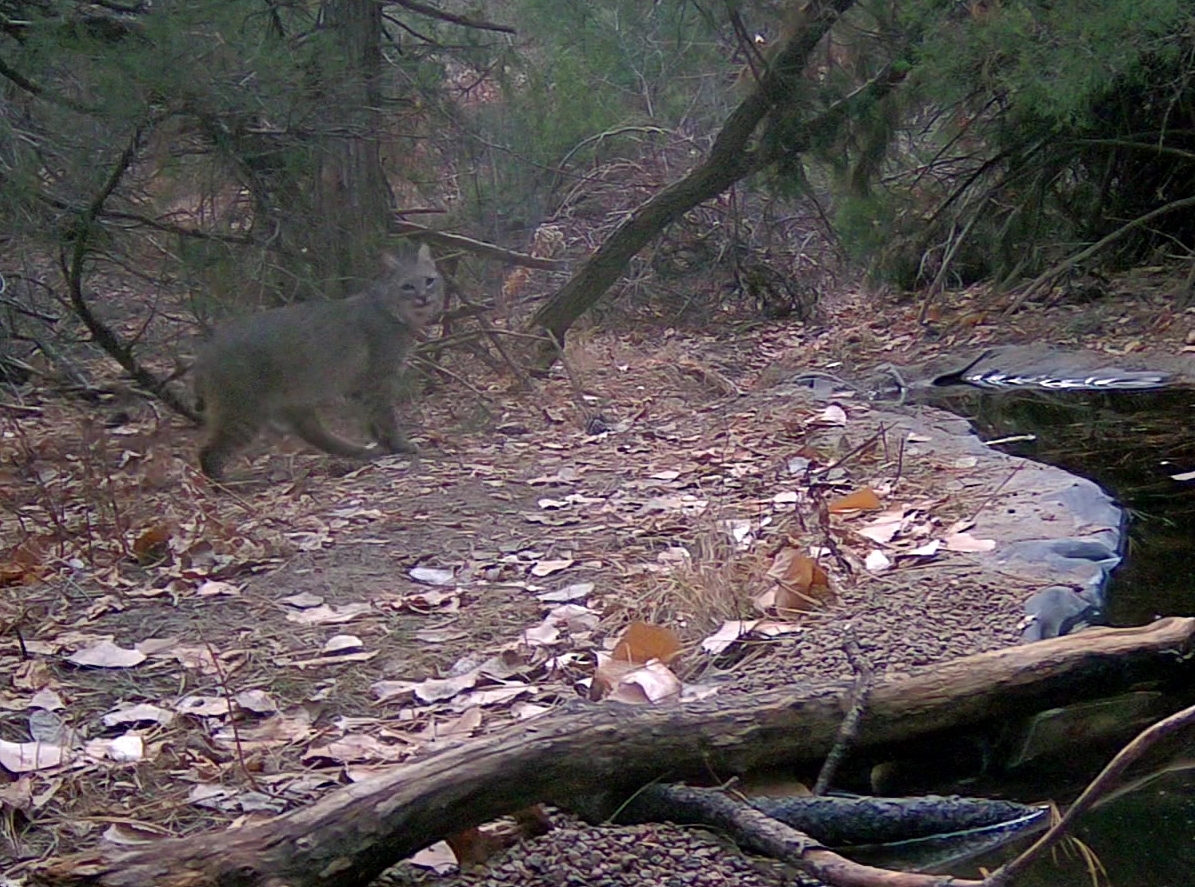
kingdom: Animalia
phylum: Chordata
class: Mammalia
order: Carnivora
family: Felidae
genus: Lynx
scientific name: Lynx rufus
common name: Bobcat
